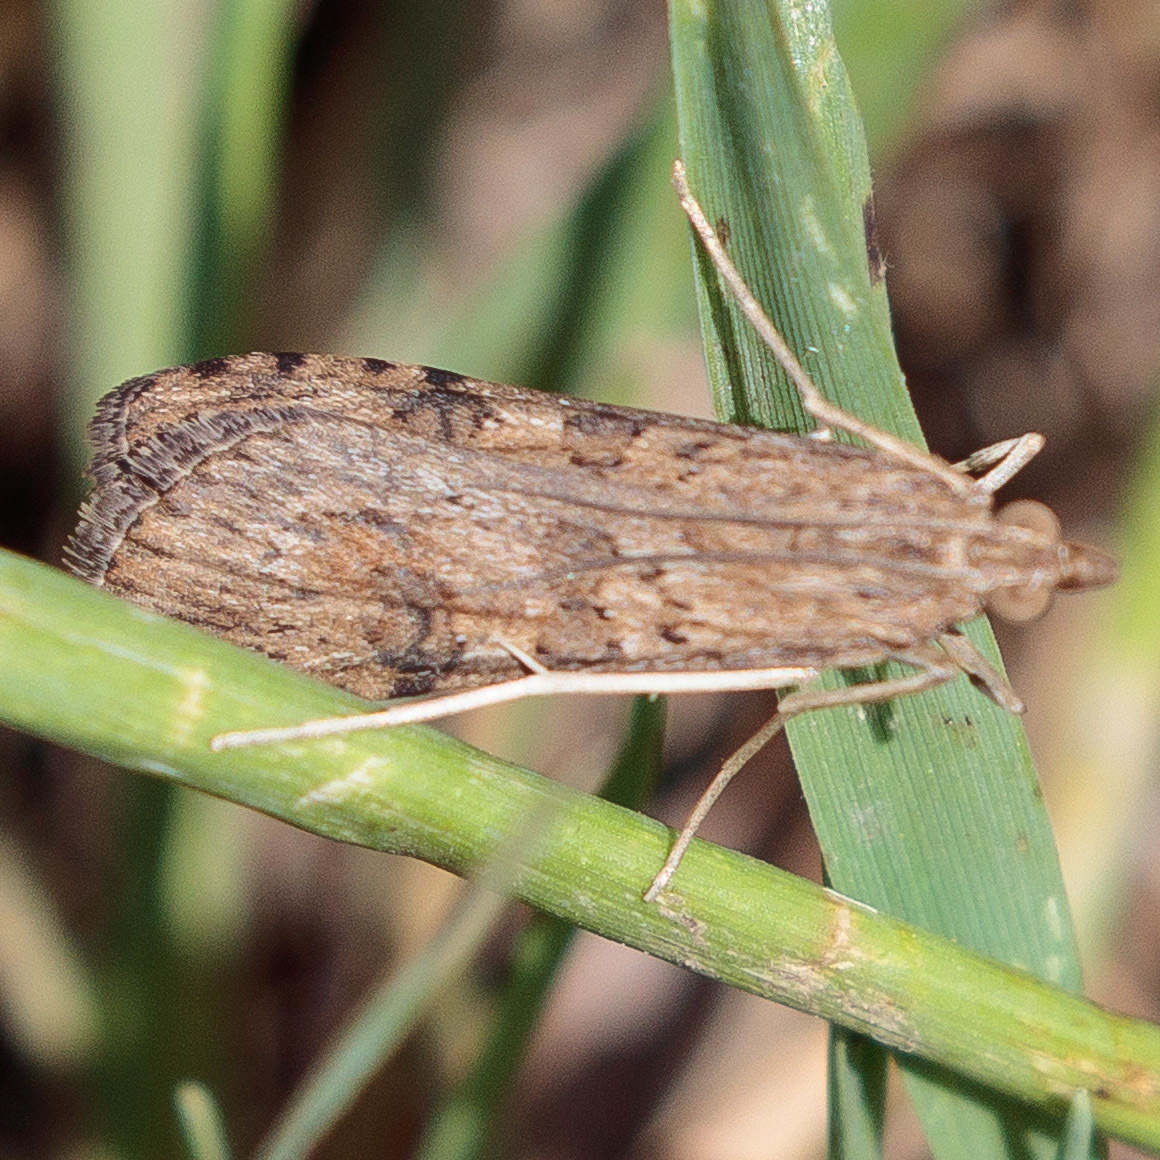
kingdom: Animalia
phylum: Arthropoda
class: Insecta
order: Lepidoptera
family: Crambidae
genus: Nomophila
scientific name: Nomophila nearctica
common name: American rush veneer
